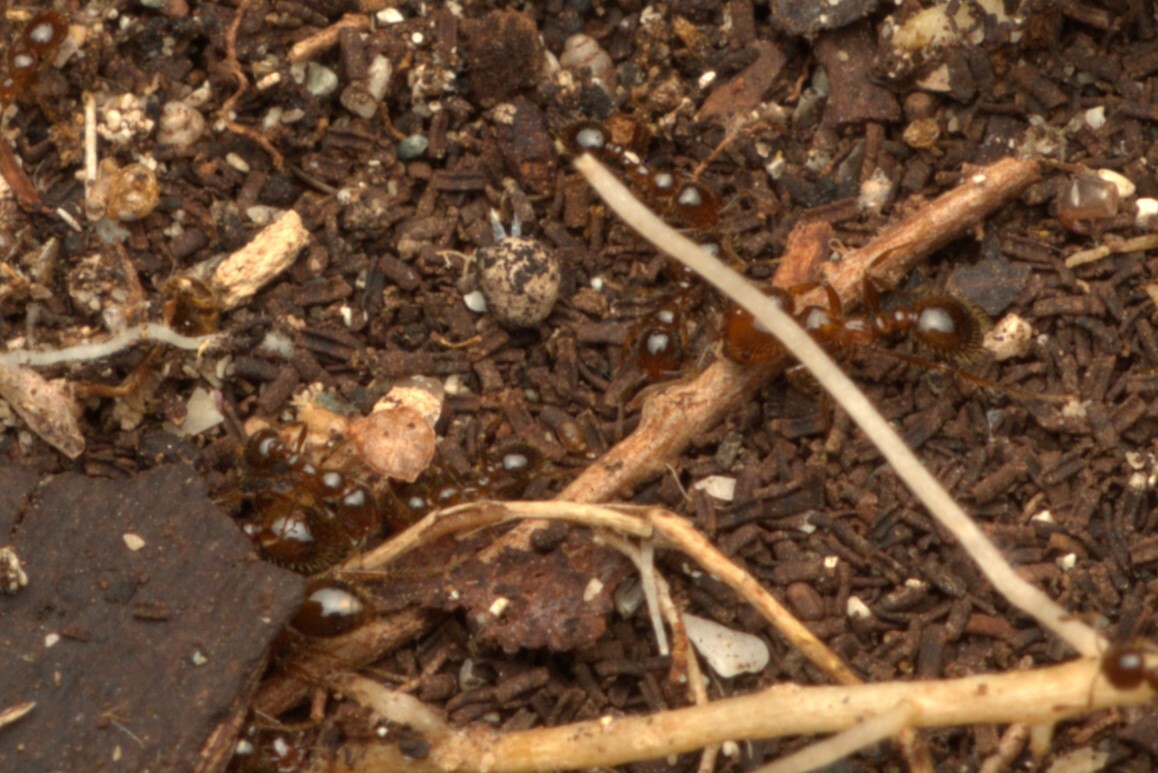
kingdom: Animalia
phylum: Arthropoda
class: Insecta
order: Hymenoptera
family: Formicidae
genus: Solenopsis
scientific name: Solenopsis geminata
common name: Tropical fire ant
